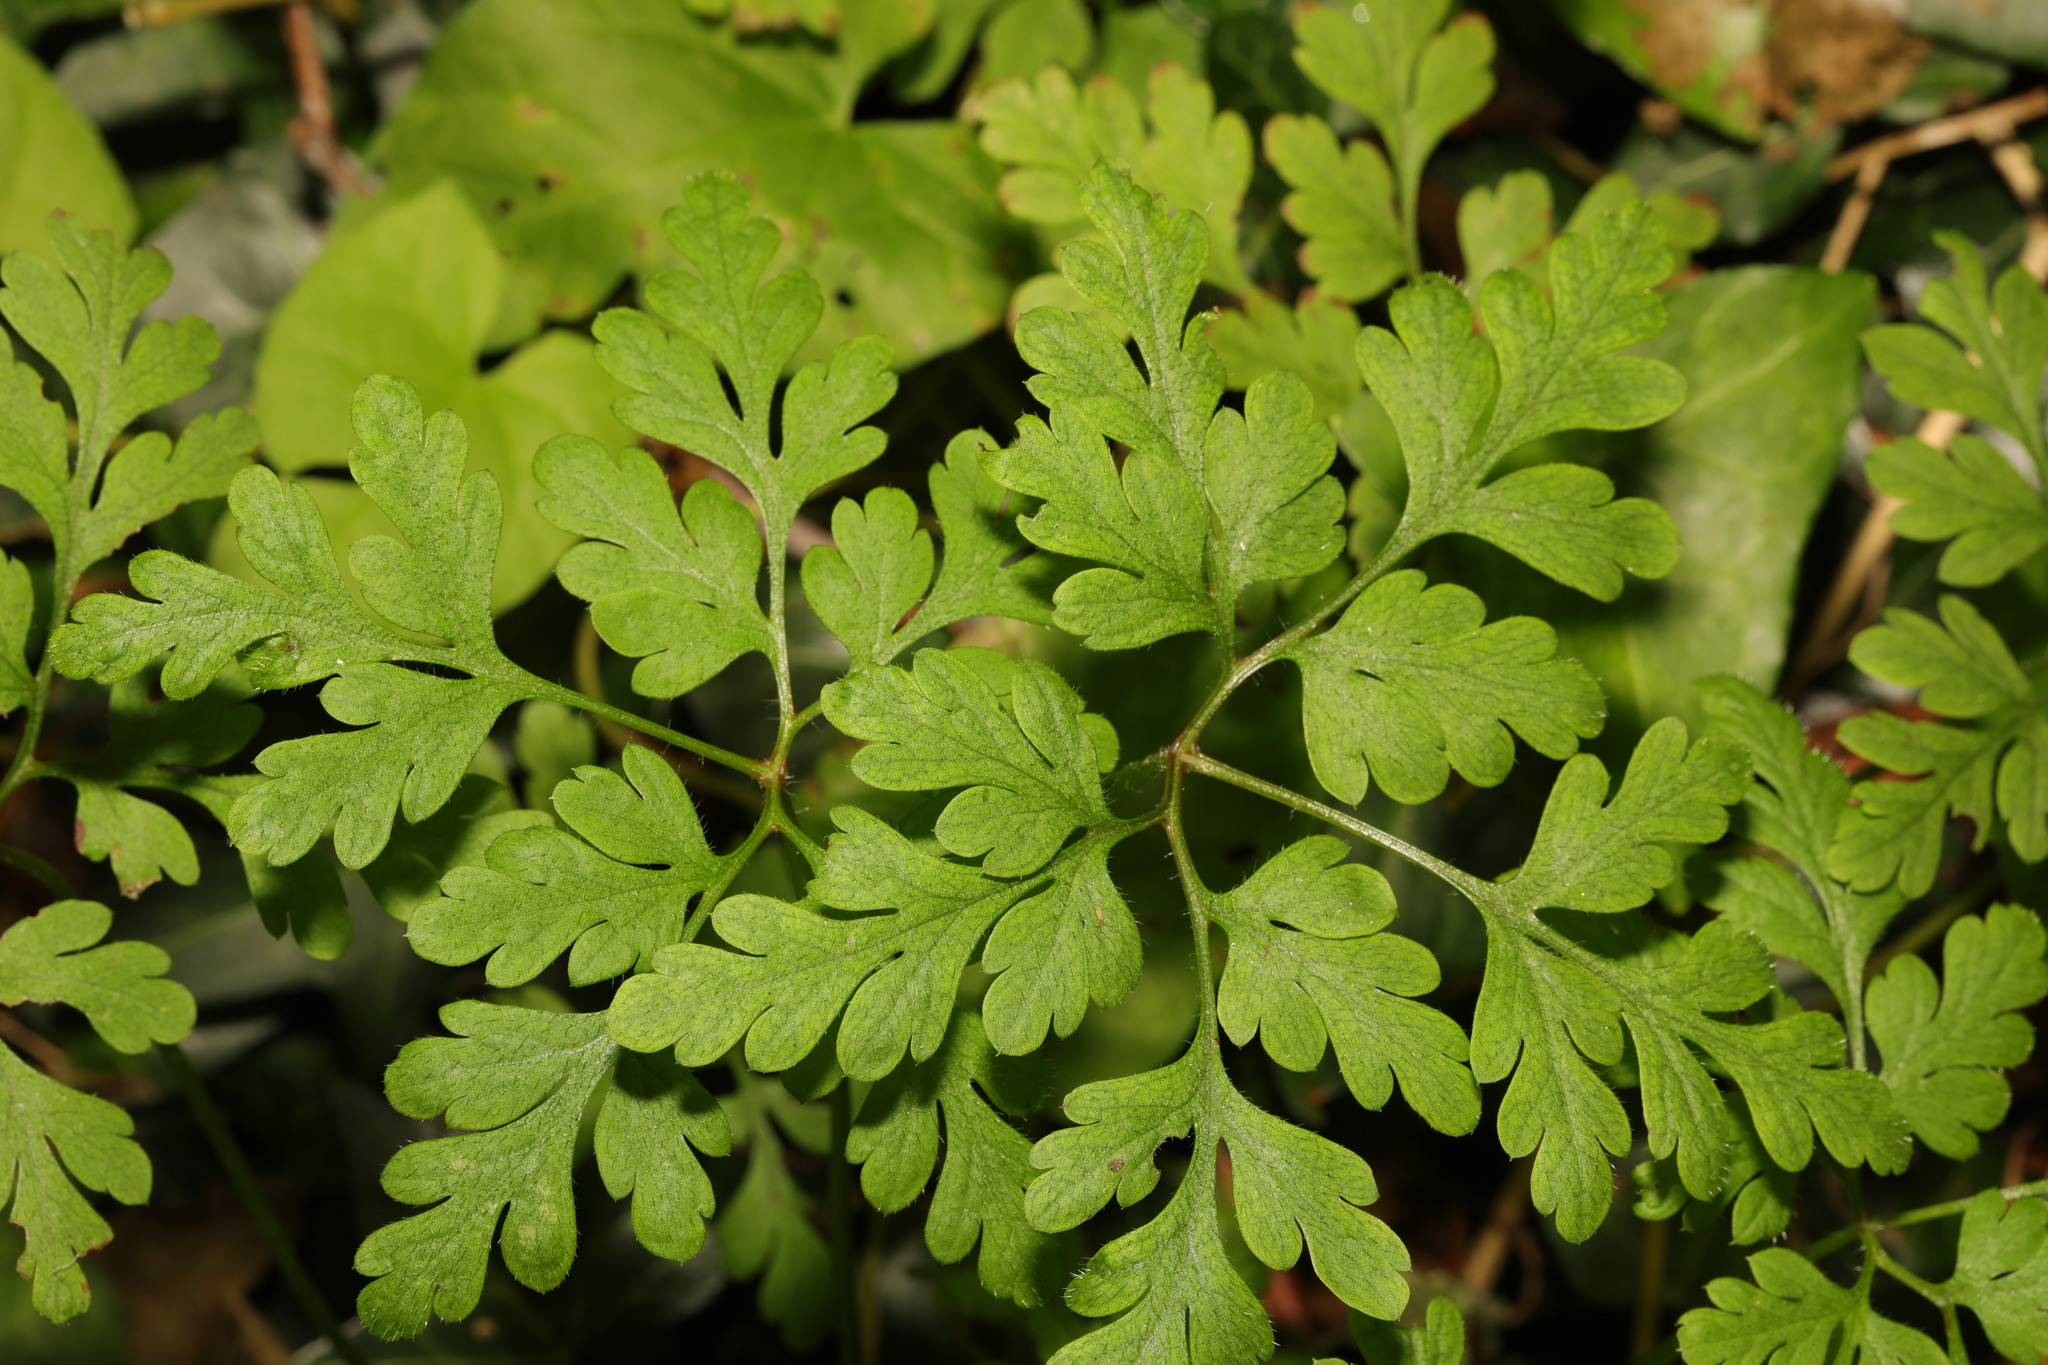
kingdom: Plantae
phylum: Tracheophyta
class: Magnoliopsida
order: Geraniales
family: Geraniaceae
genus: Geranium
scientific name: Geranium robertianum
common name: Herb-robert
